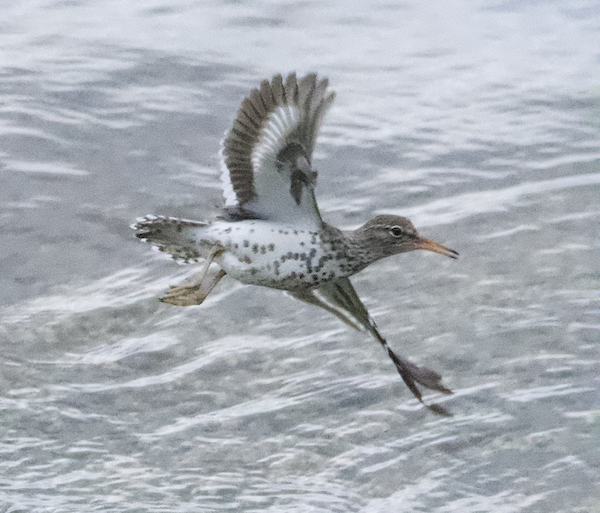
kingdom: Animalia
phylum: Chordata
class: Aves
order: Charadriiformes
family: Scolopacidae
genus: Actitis
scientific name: Actitis macularius
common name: Spotted sandpiper
